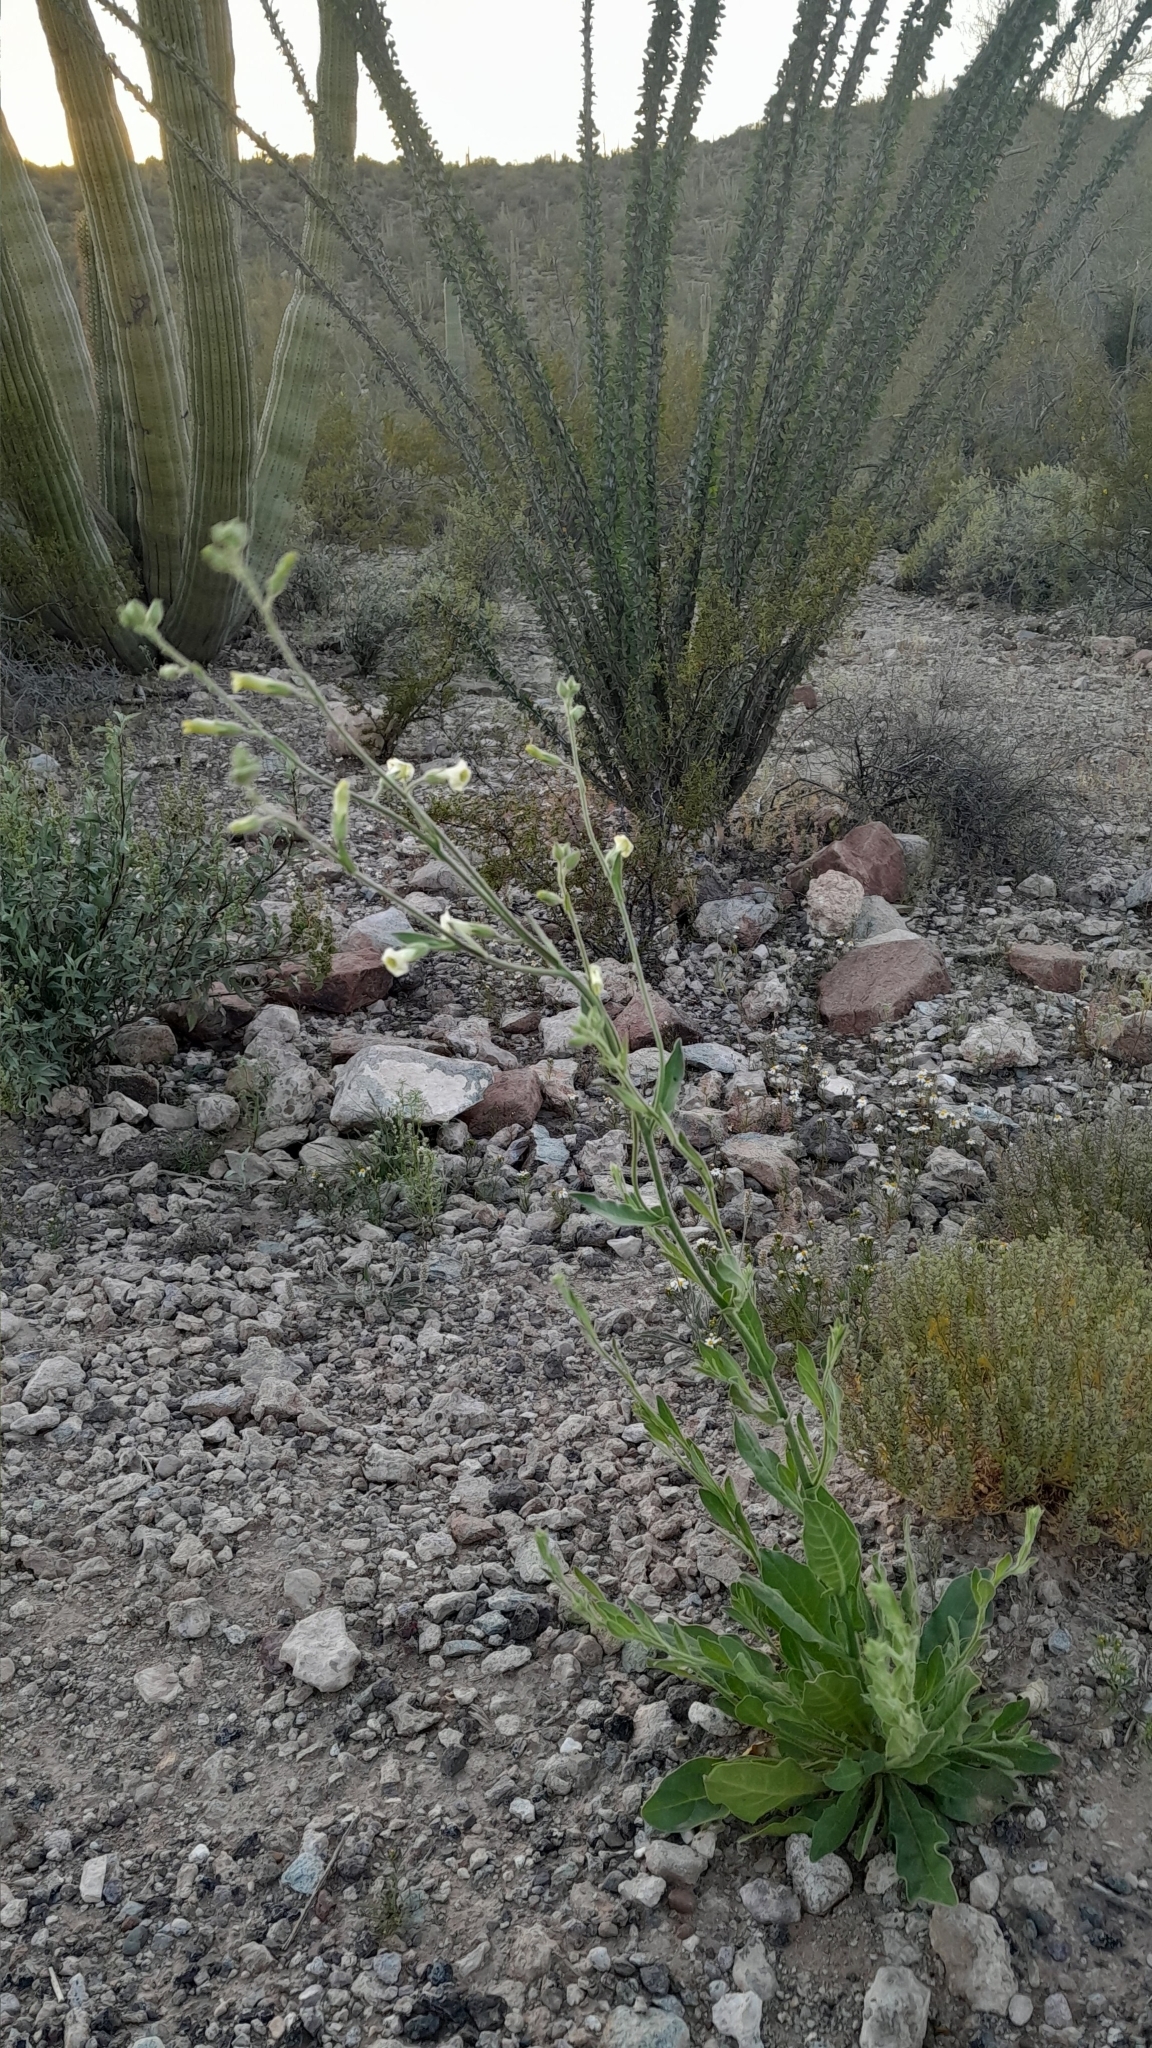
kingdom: Plantae
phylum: Tracheophyta
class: Magnoliopsida
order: Solanales
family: Solanaceae
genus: Nicotiana
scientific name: Nicotiana obtusifolia
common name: Desert tobacco
